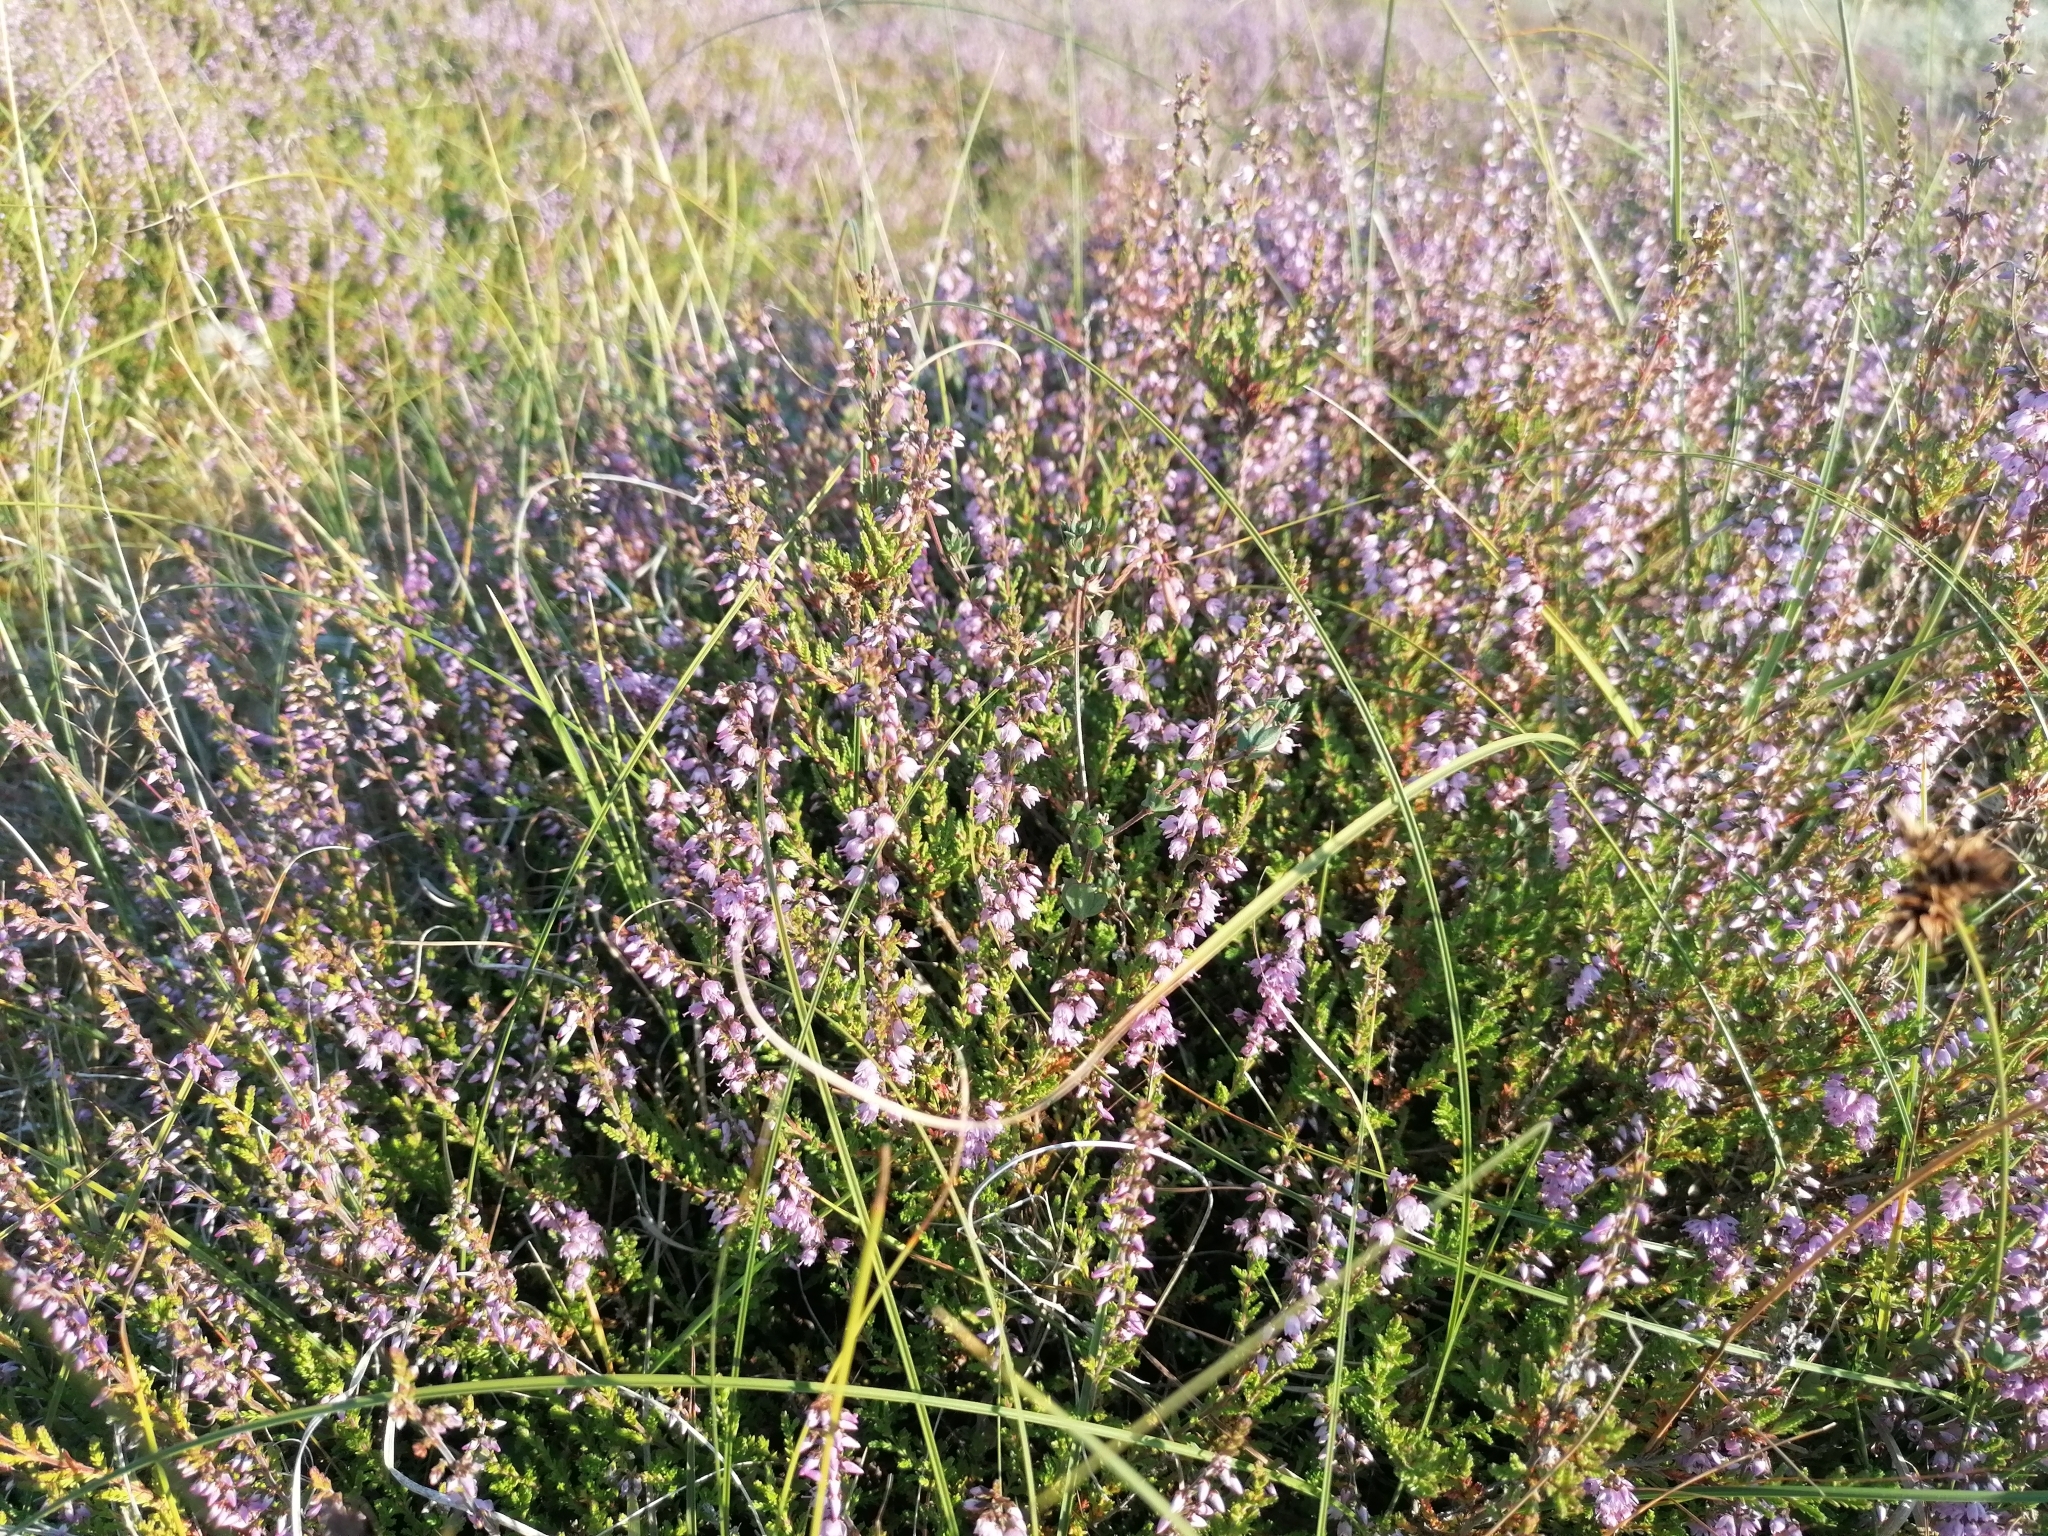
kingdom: Plantae
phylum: Tracheophyta
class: Magnoliopsida
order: Ericales
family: Ericaceae
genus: Calluna
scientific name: Calluna vulgaris
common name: Heather
